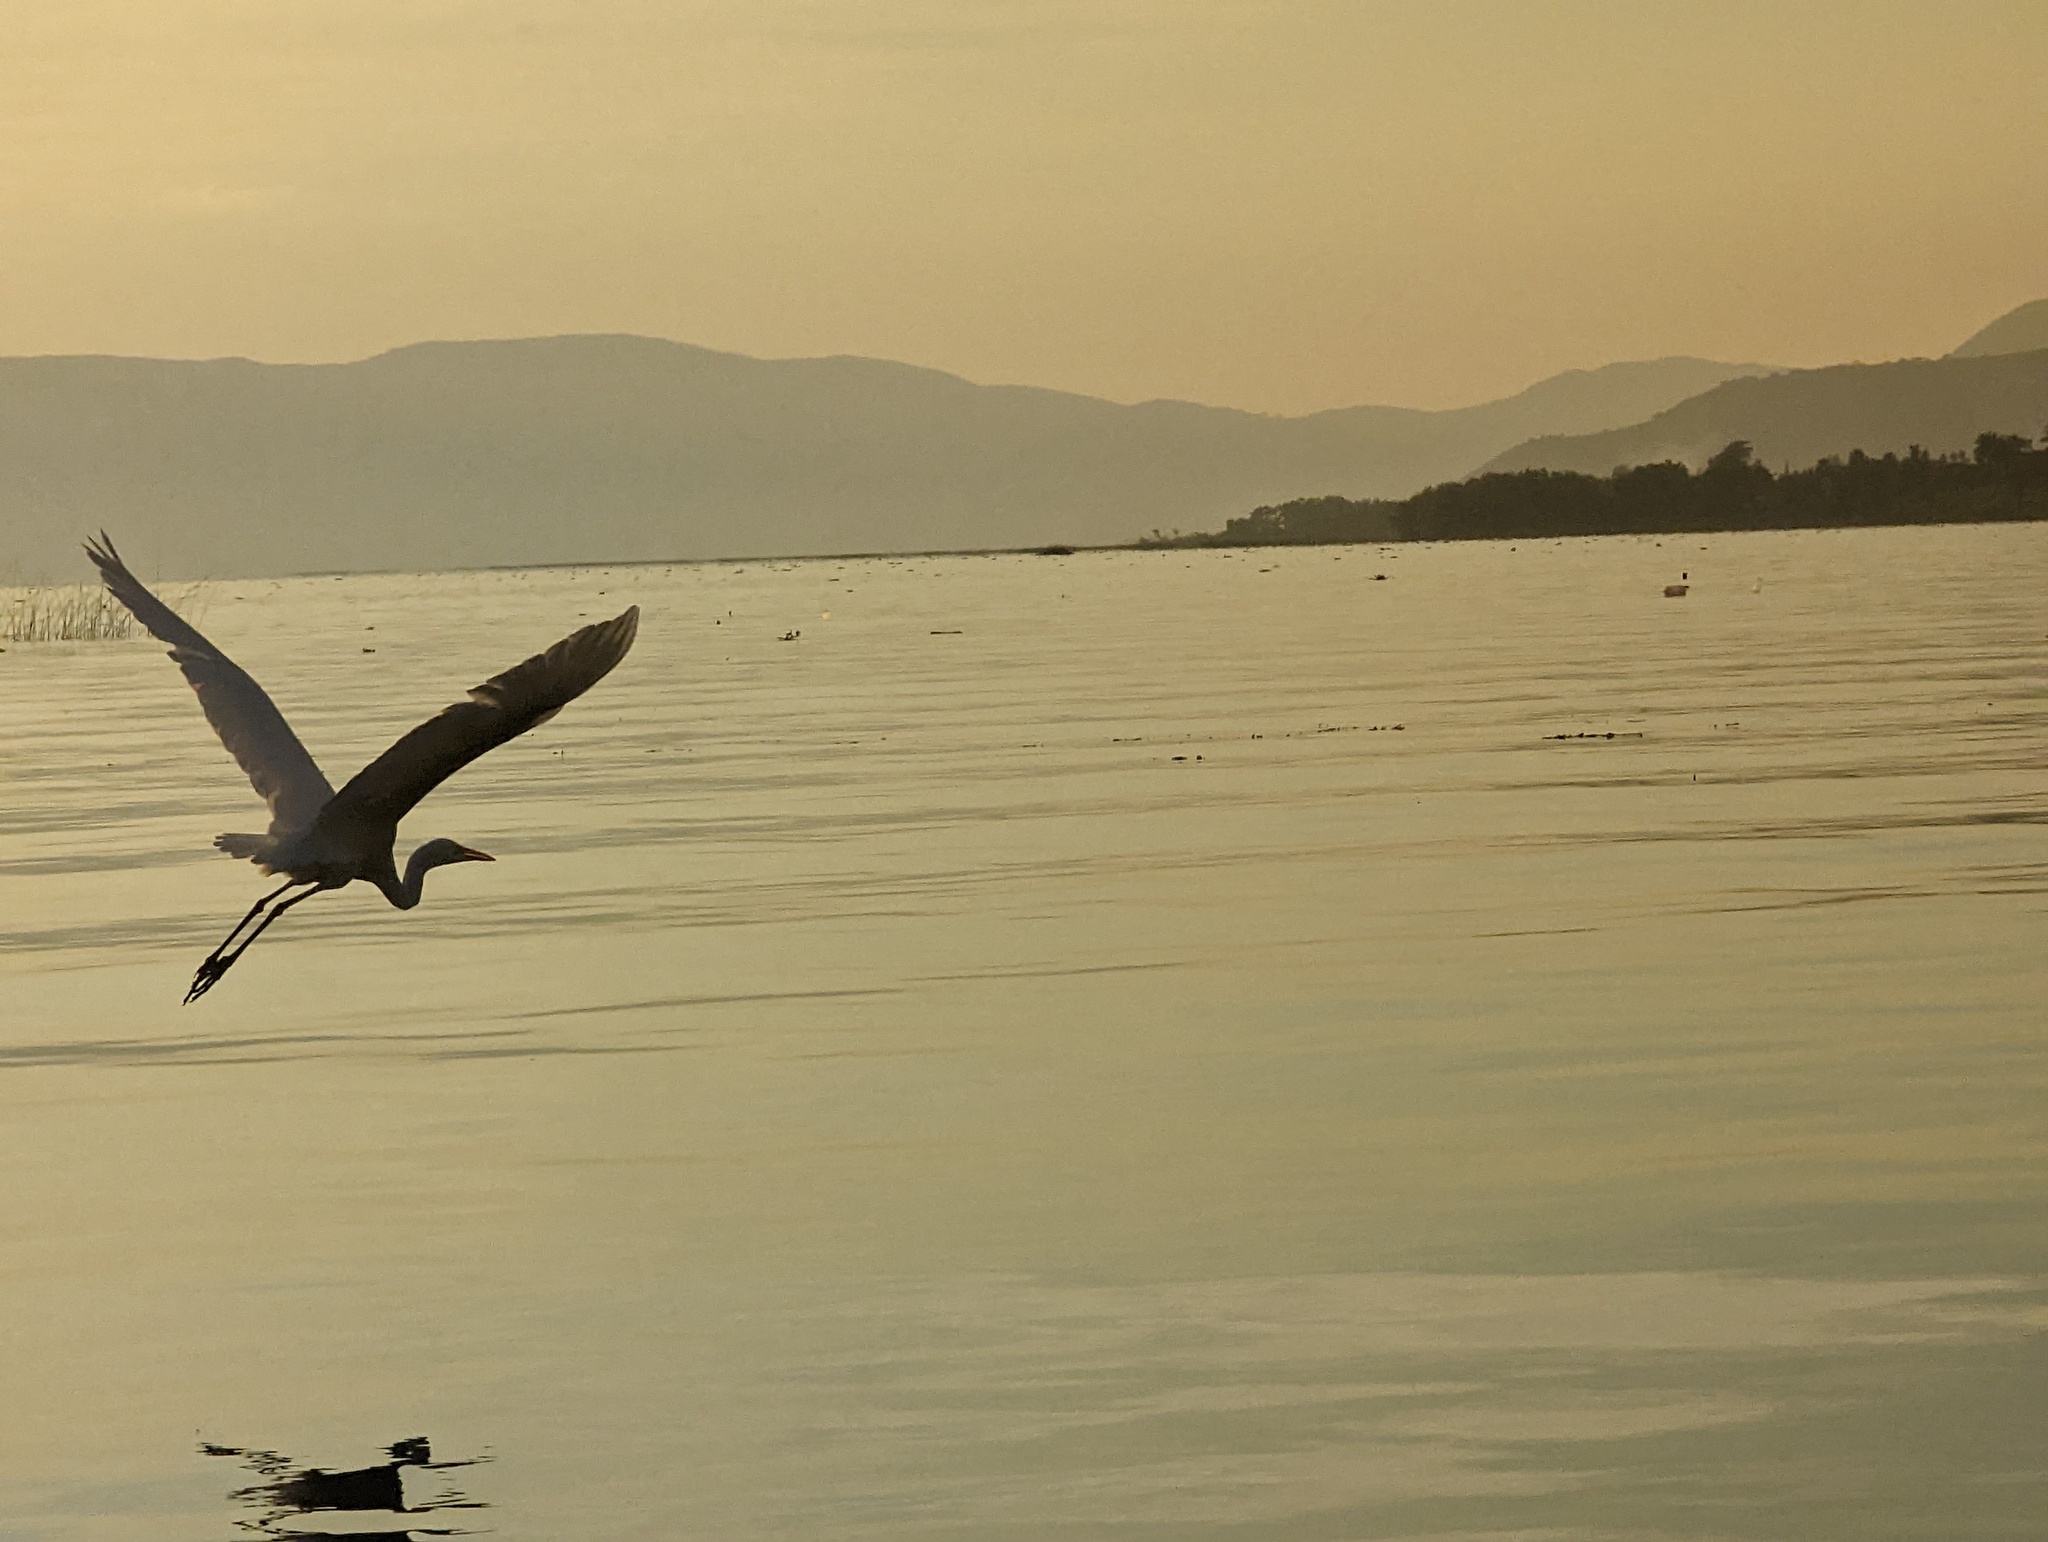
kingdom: Animalia
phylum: Chordata
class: Aves
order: Pelecaniformes
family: Ardeidae
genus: Ardea
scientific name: Ardea alba
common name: Great egret
